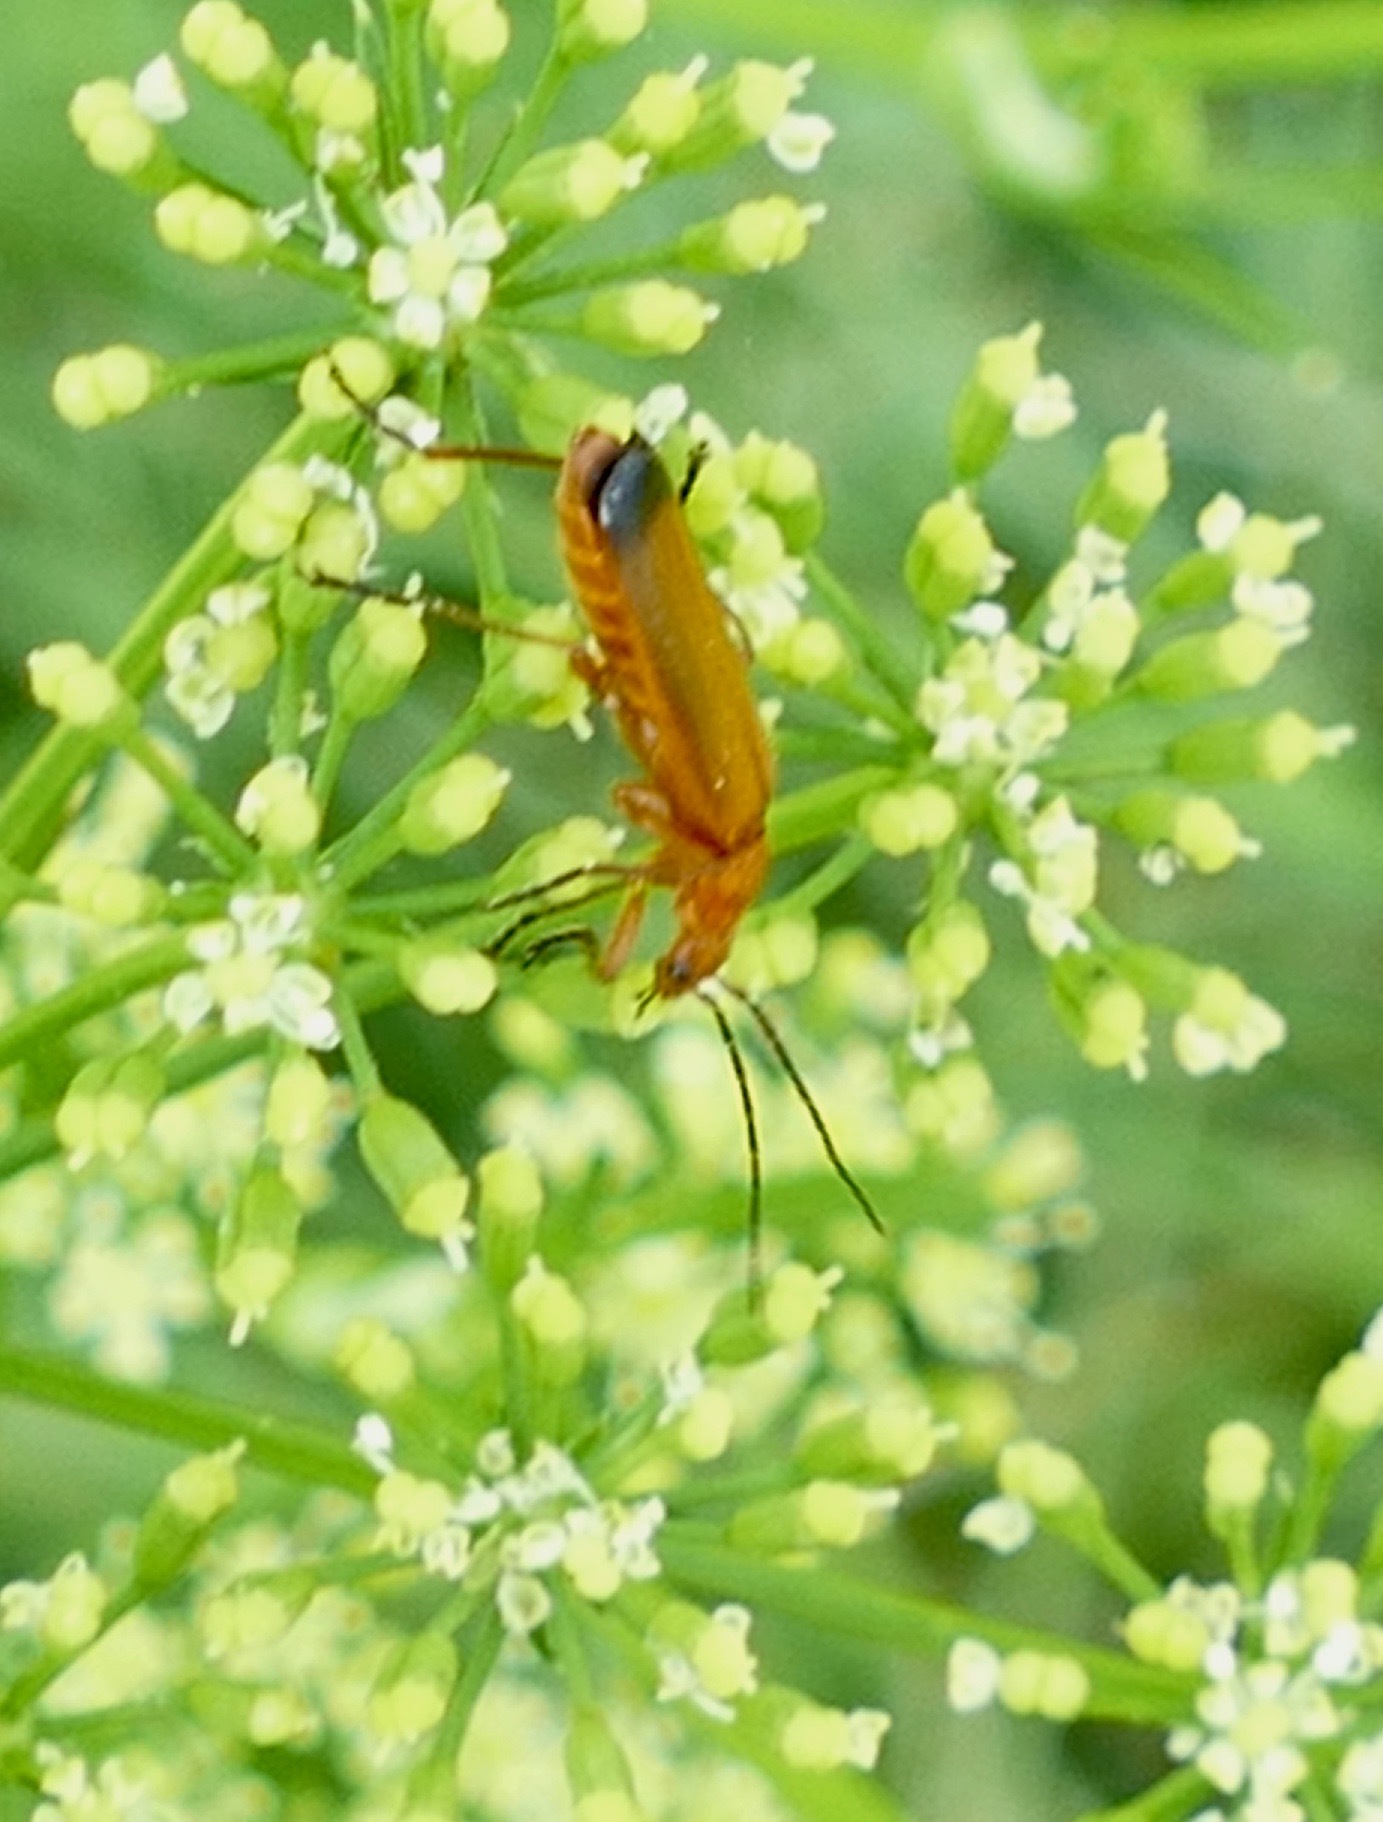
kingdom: Animalia
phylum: Arthropoda
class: Insecta
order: Coleoptera
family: Cantharidae
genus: Rhagonycha
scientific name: Rhagonycha fulva
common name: Common red soldier beetle
